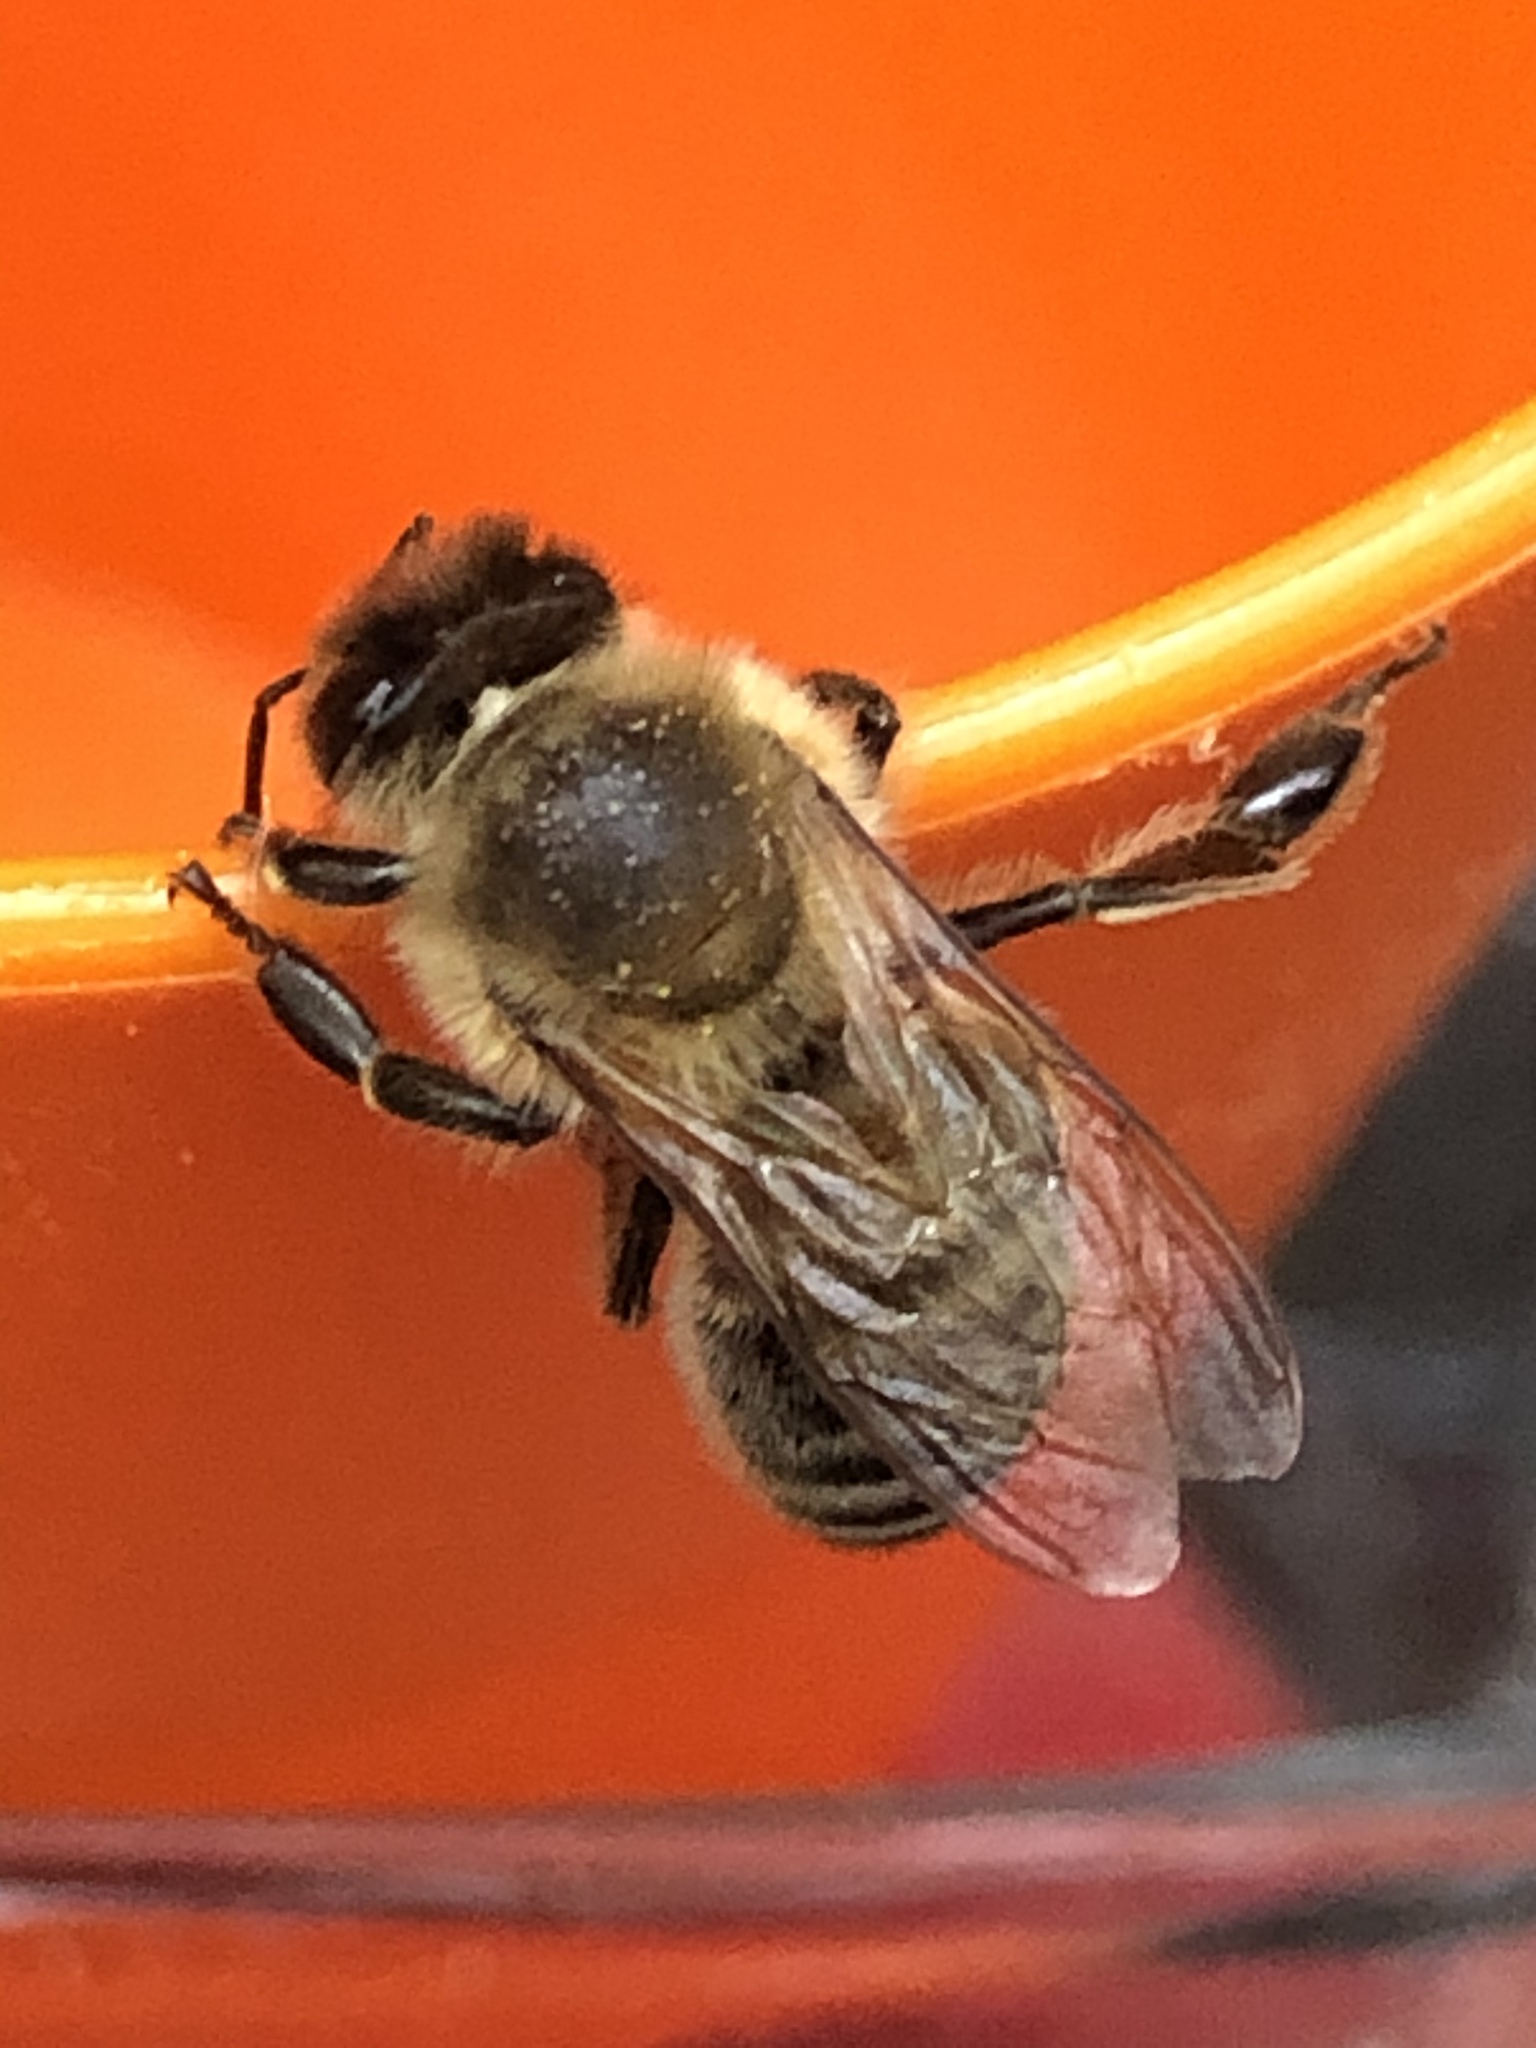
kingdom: Animalia
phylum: Arthropoda
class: Insecta
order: Hymenoptera
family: Apidae
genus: Apis
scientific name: Apis mellifera
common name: Honey bee
